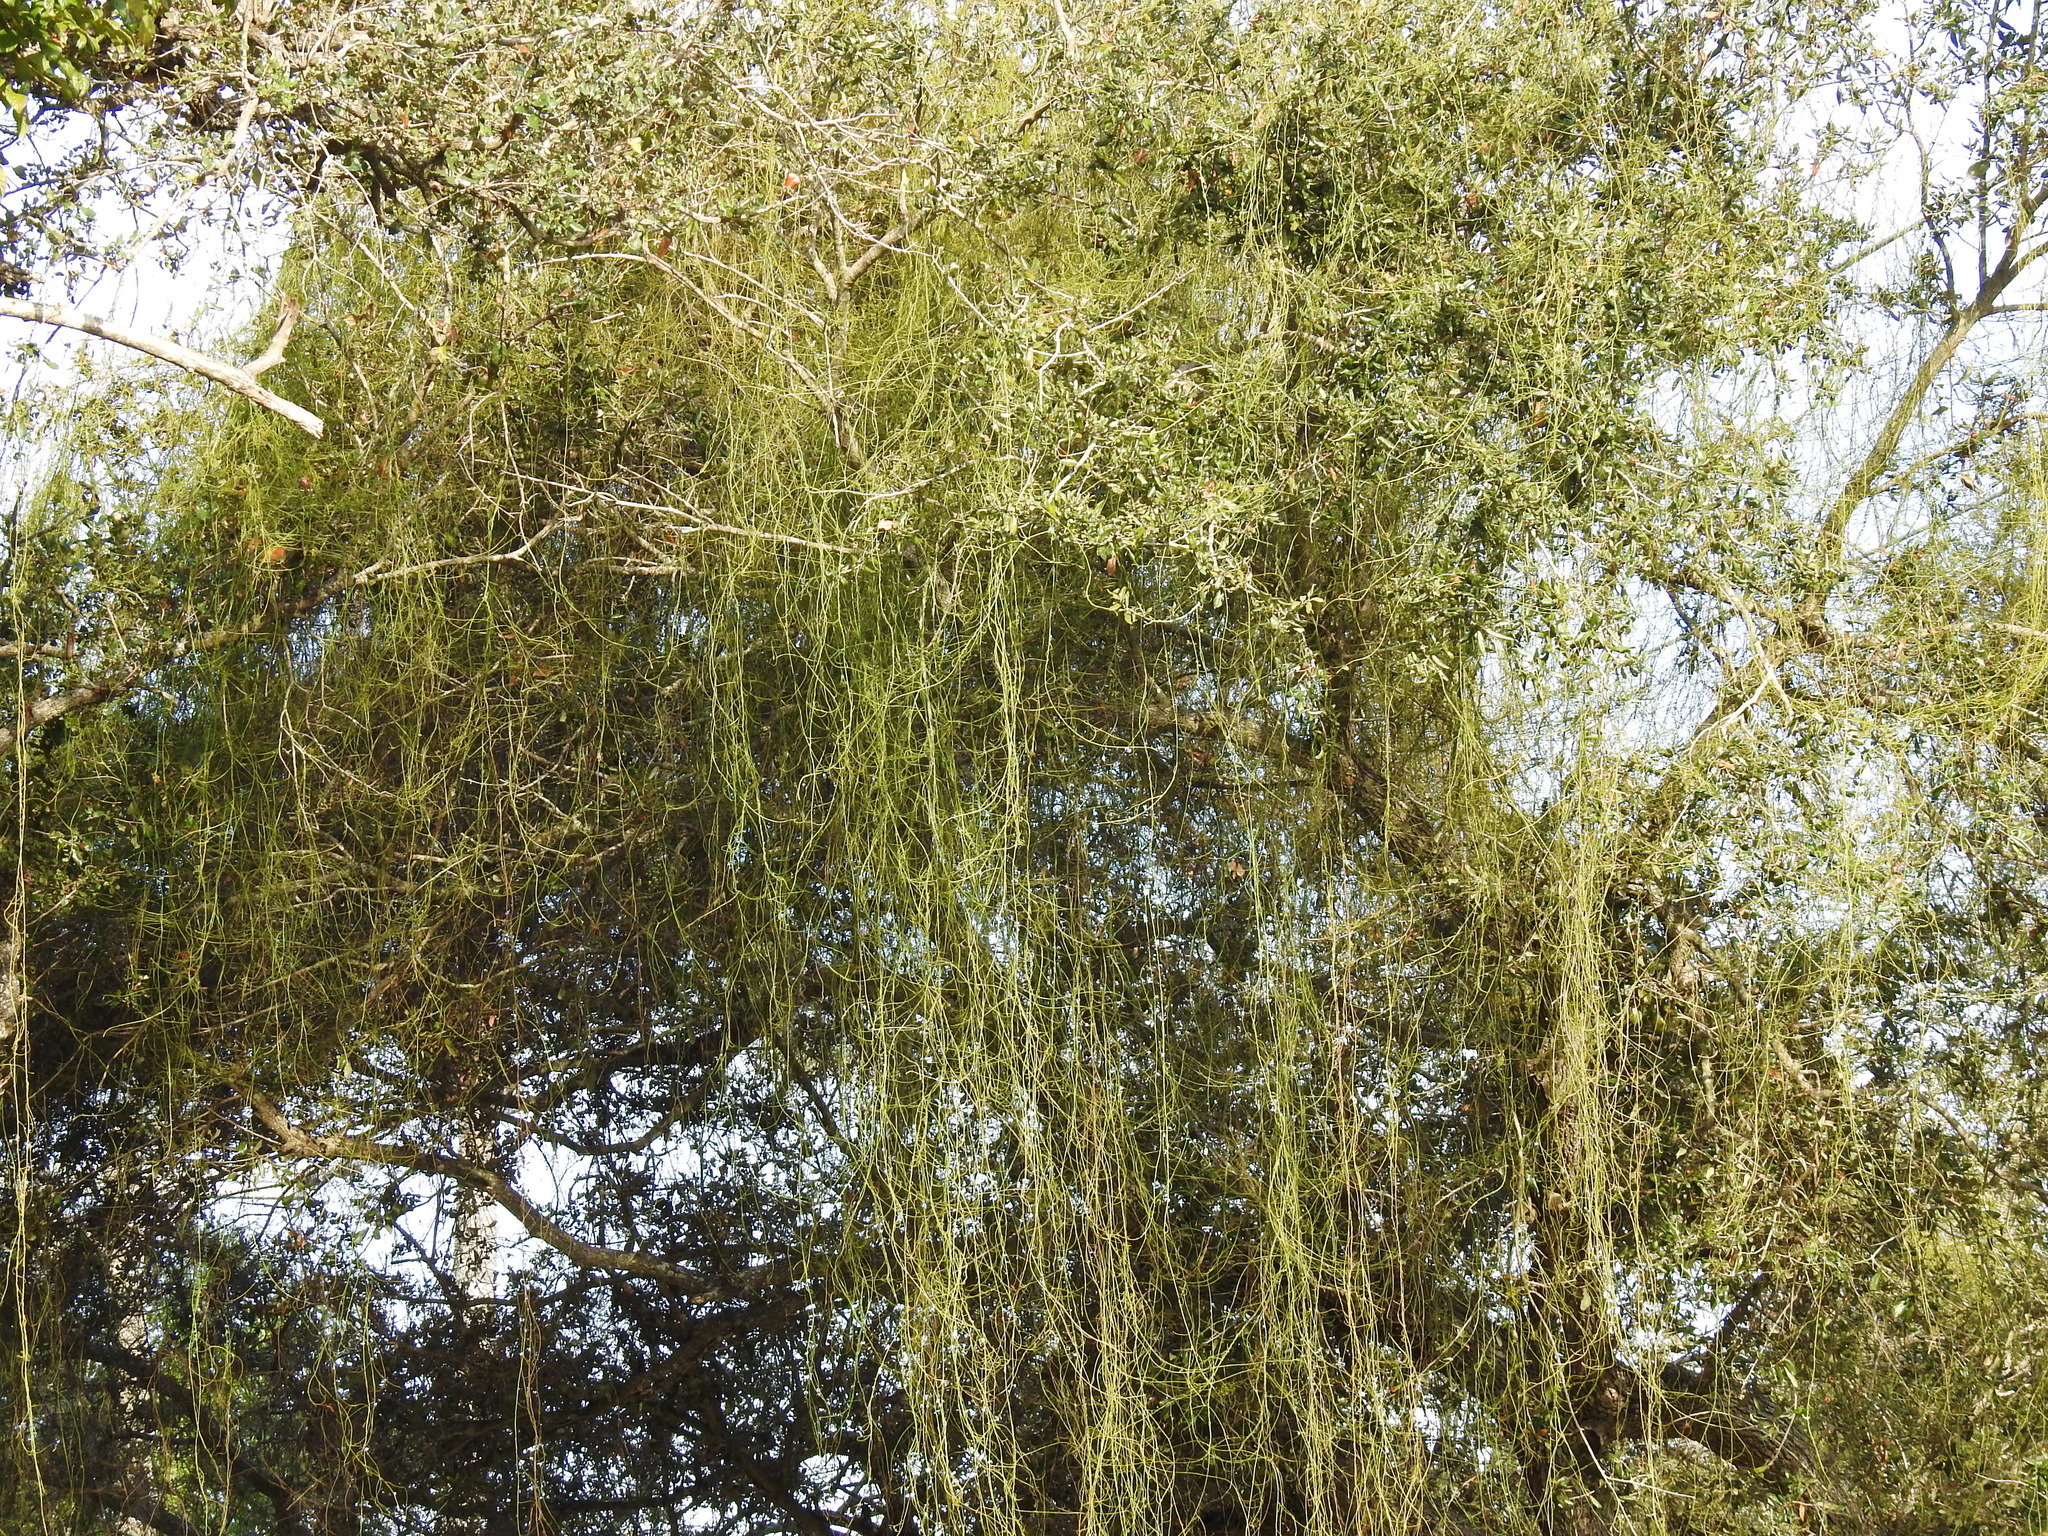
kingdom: Plantae
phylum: Tracheophyta
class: Magnoliopsida
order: Laurales
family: Lauraceae
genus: Cassytha
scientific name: Cassytha filiformis
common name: Dodder-laurel
